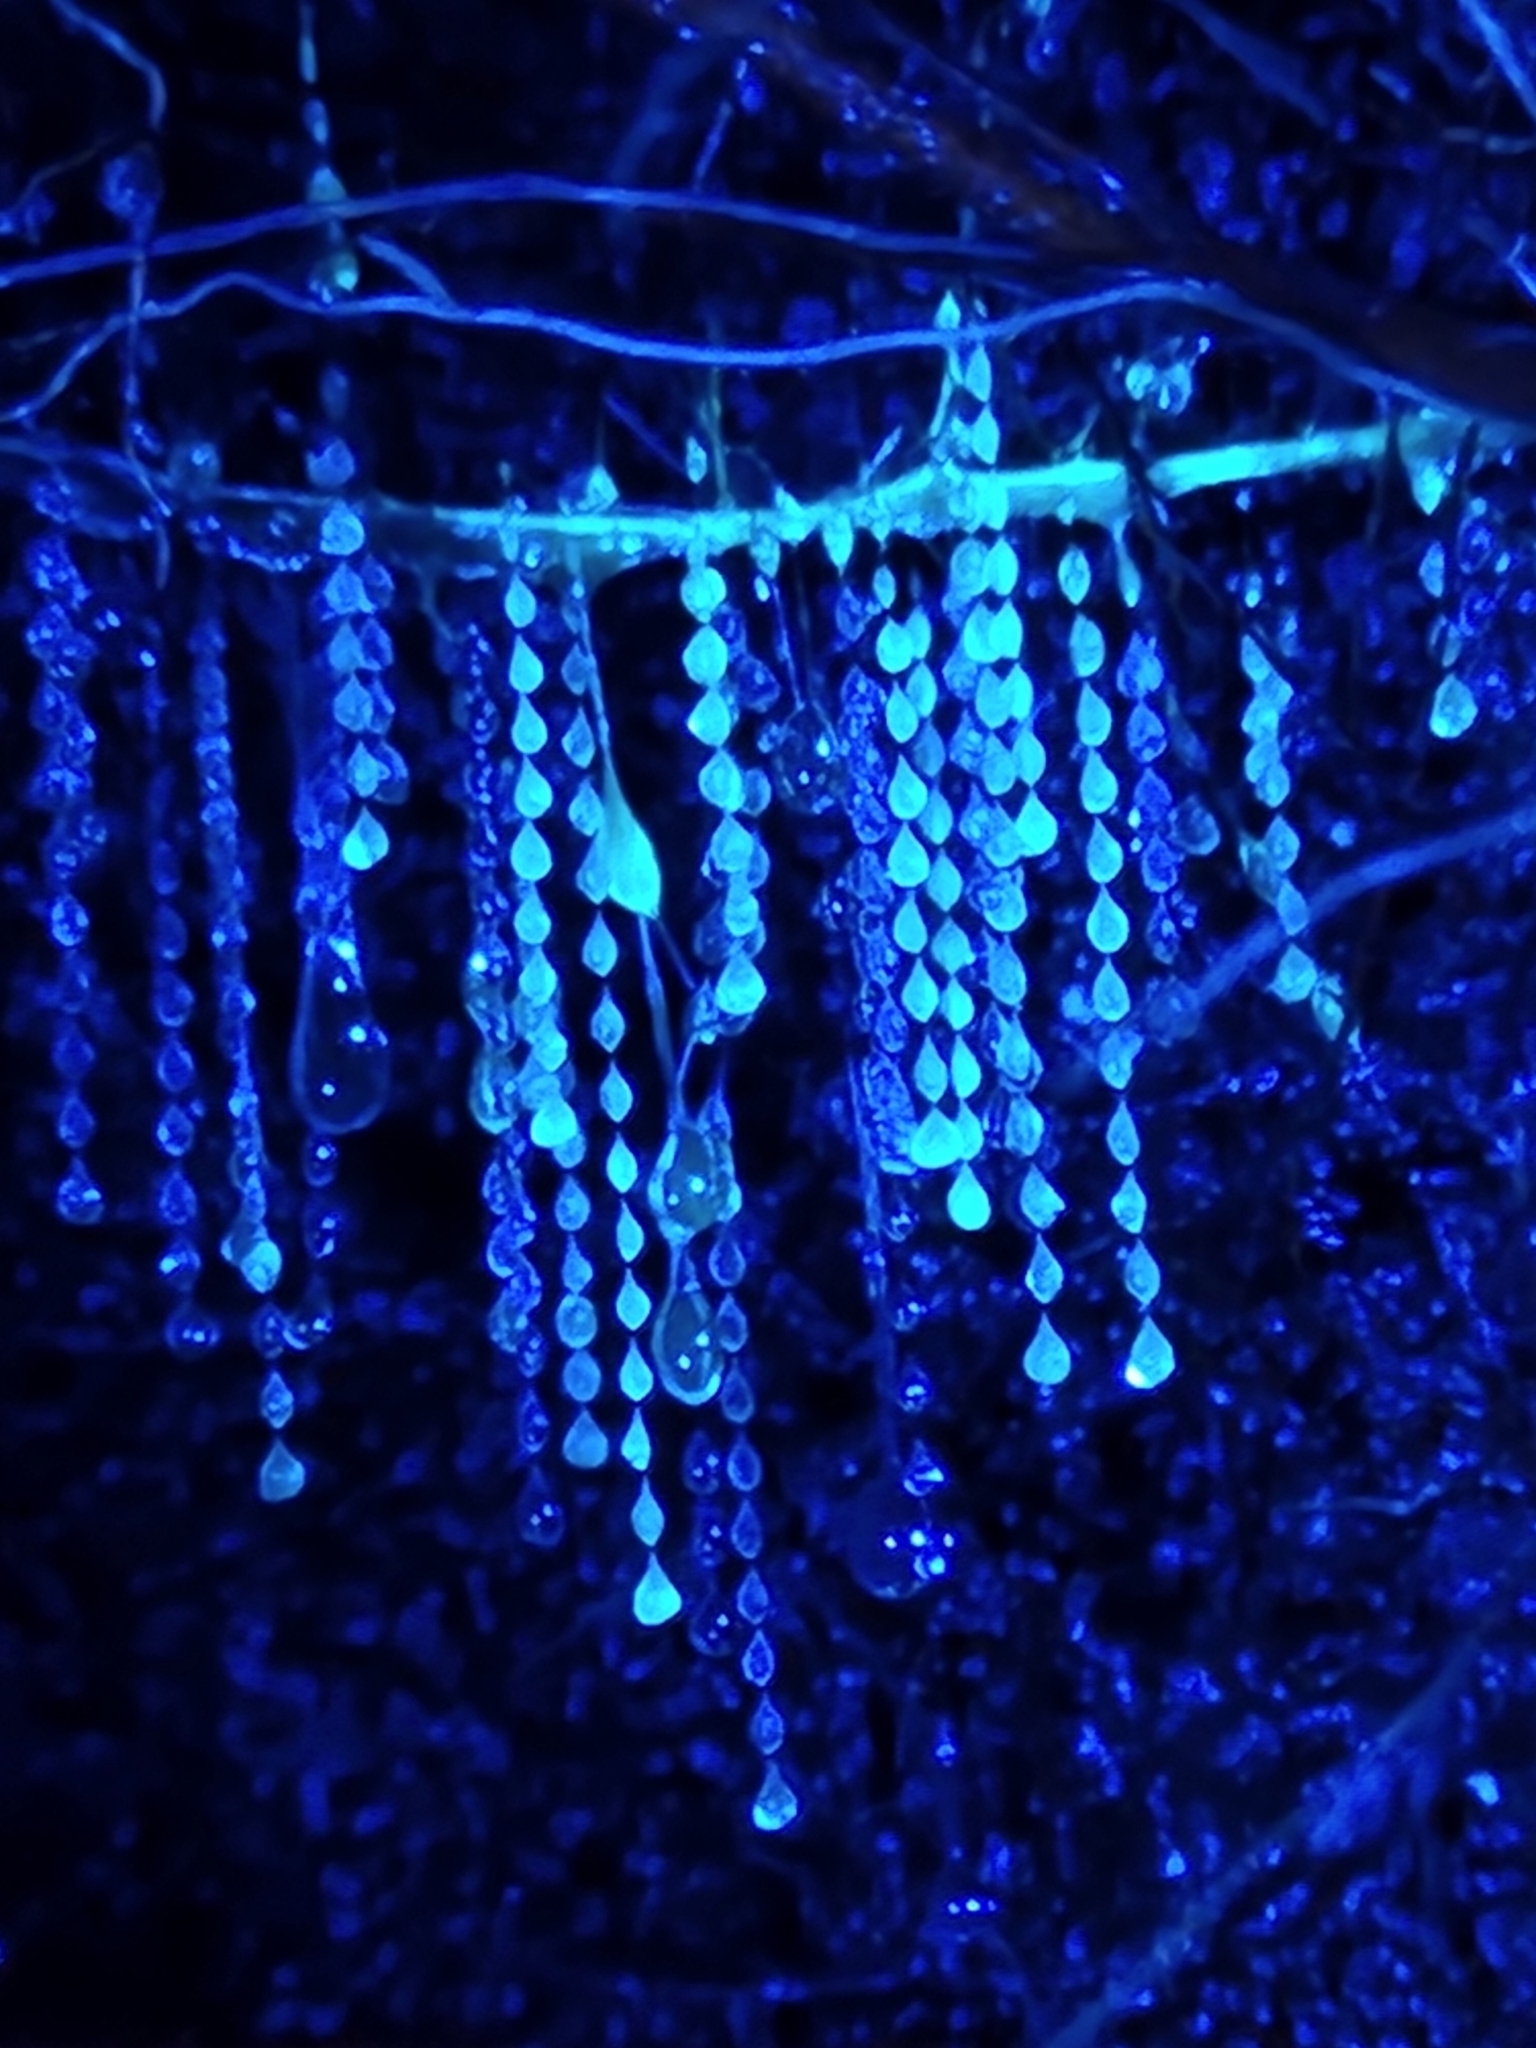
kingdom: Animalia
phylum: Arthropoda
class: Insecta
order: Diptera
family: Keroplatidae
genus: Arachnocampa
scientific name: Arachnocampa luminosa
